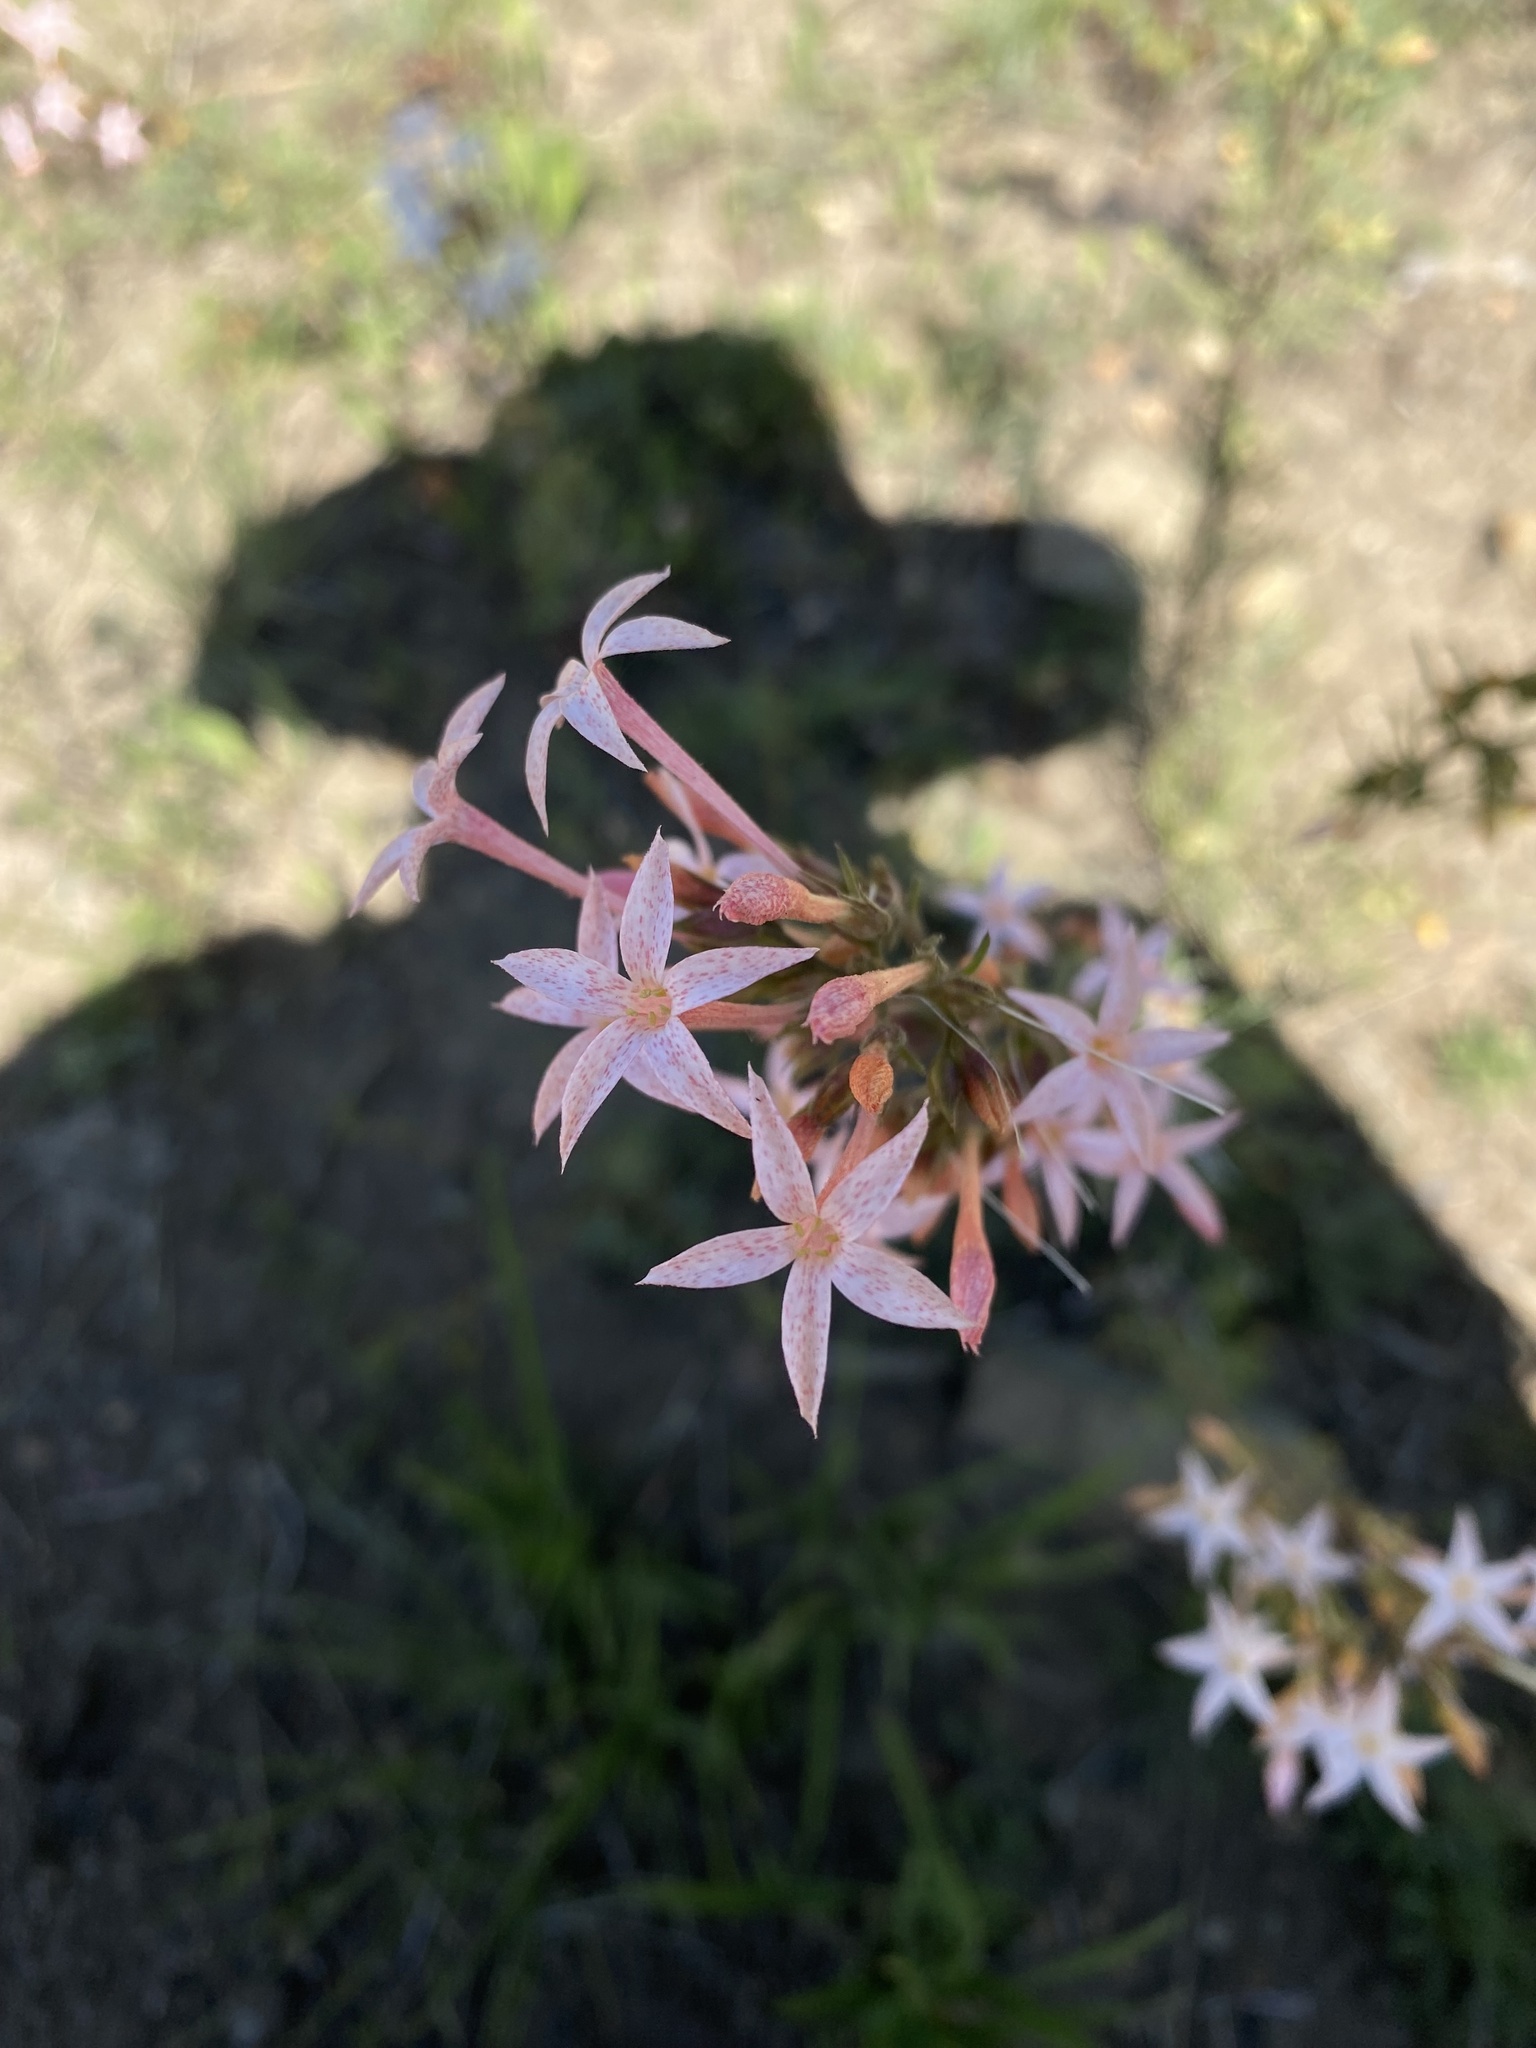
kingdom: Plantae
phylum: Tracheophyta
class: Magnoliopsida
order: Ericales
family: Polemoniaceae
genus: Ipomopsis
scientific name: Ipomopsis tenuituba
